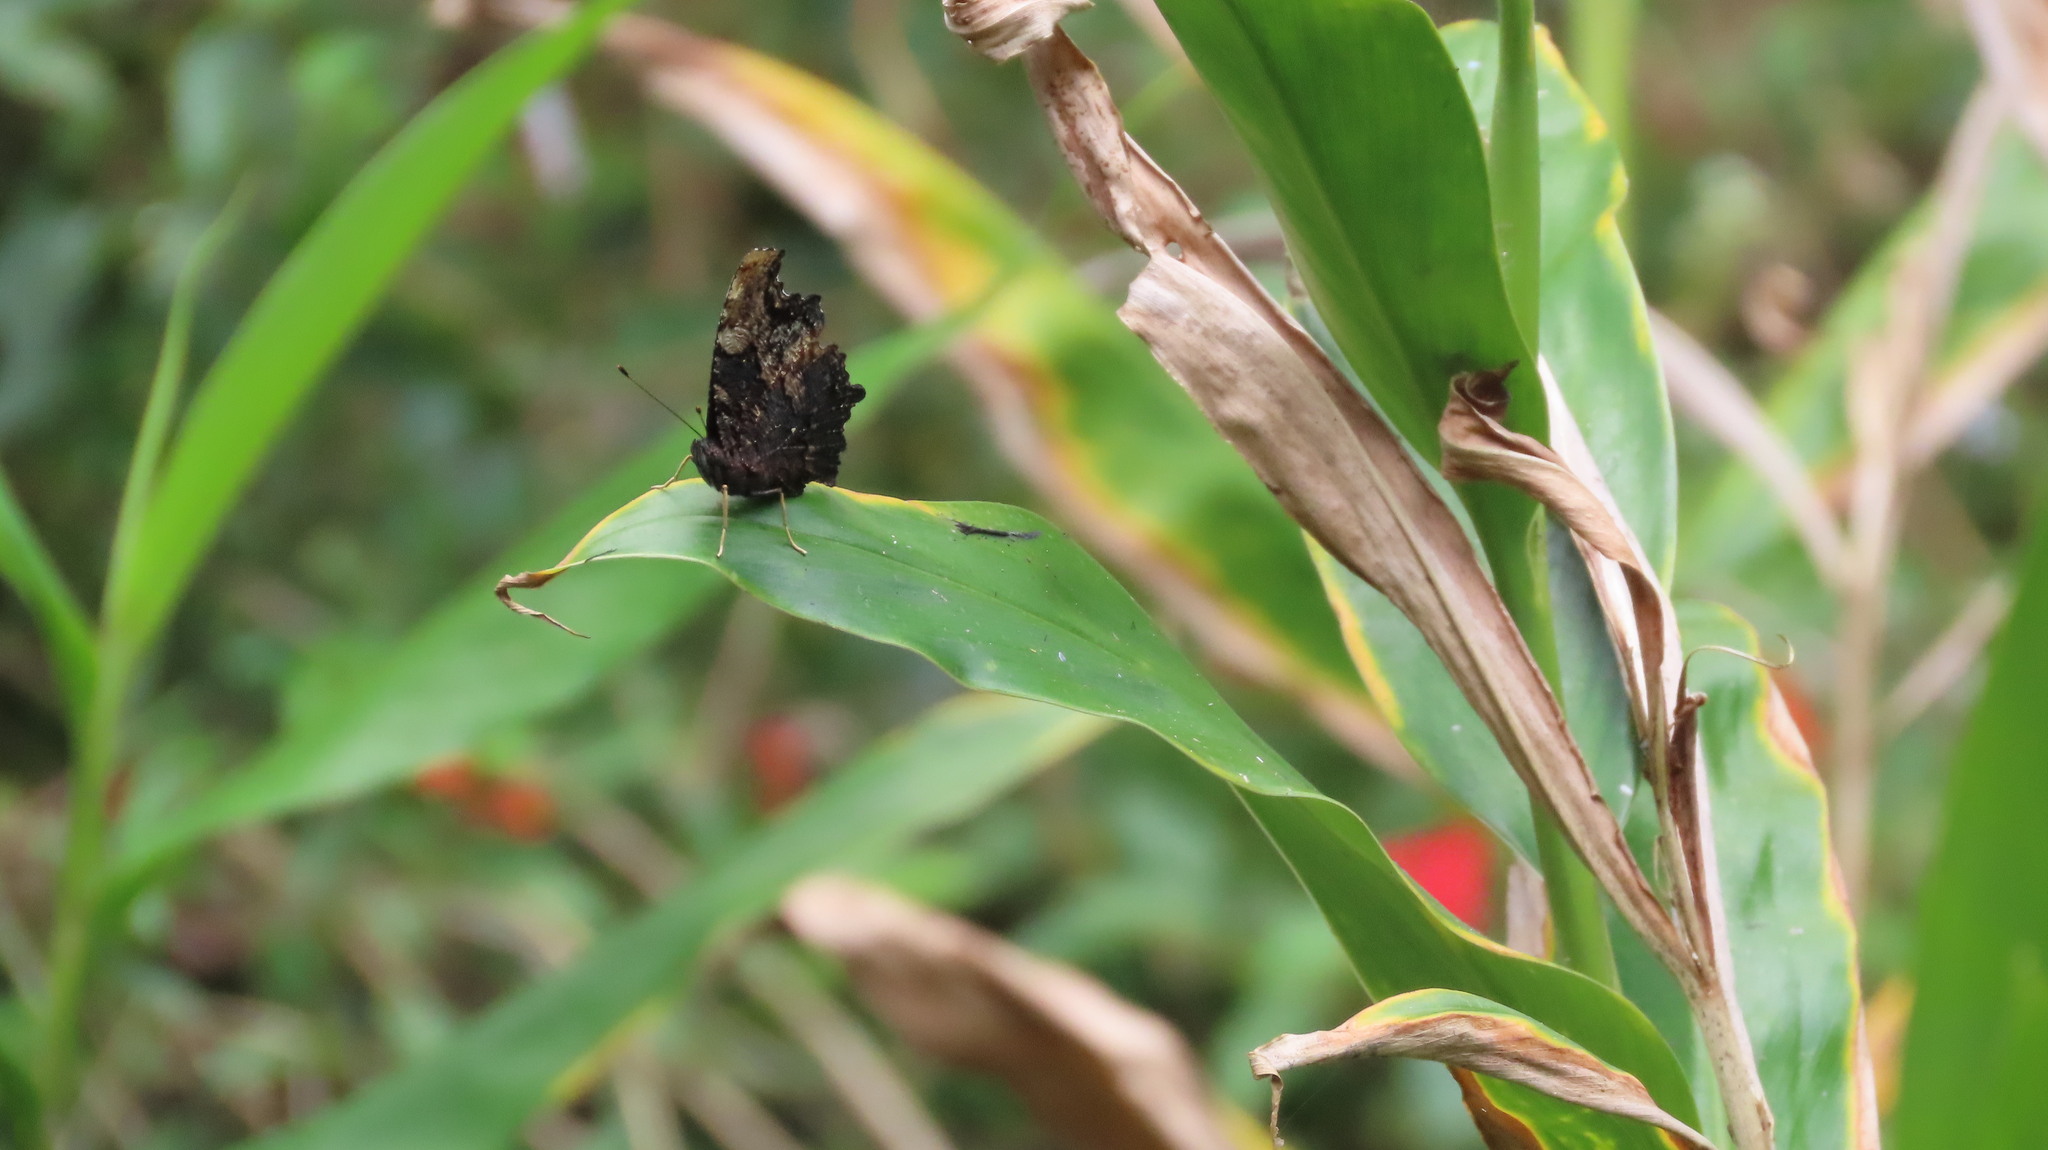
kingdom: Animalia
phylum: Arthropoda
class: Insecta
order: Lepidoptera
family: Nymphalidae
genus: Vanessa
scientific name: Vanessa Kaniska canace
